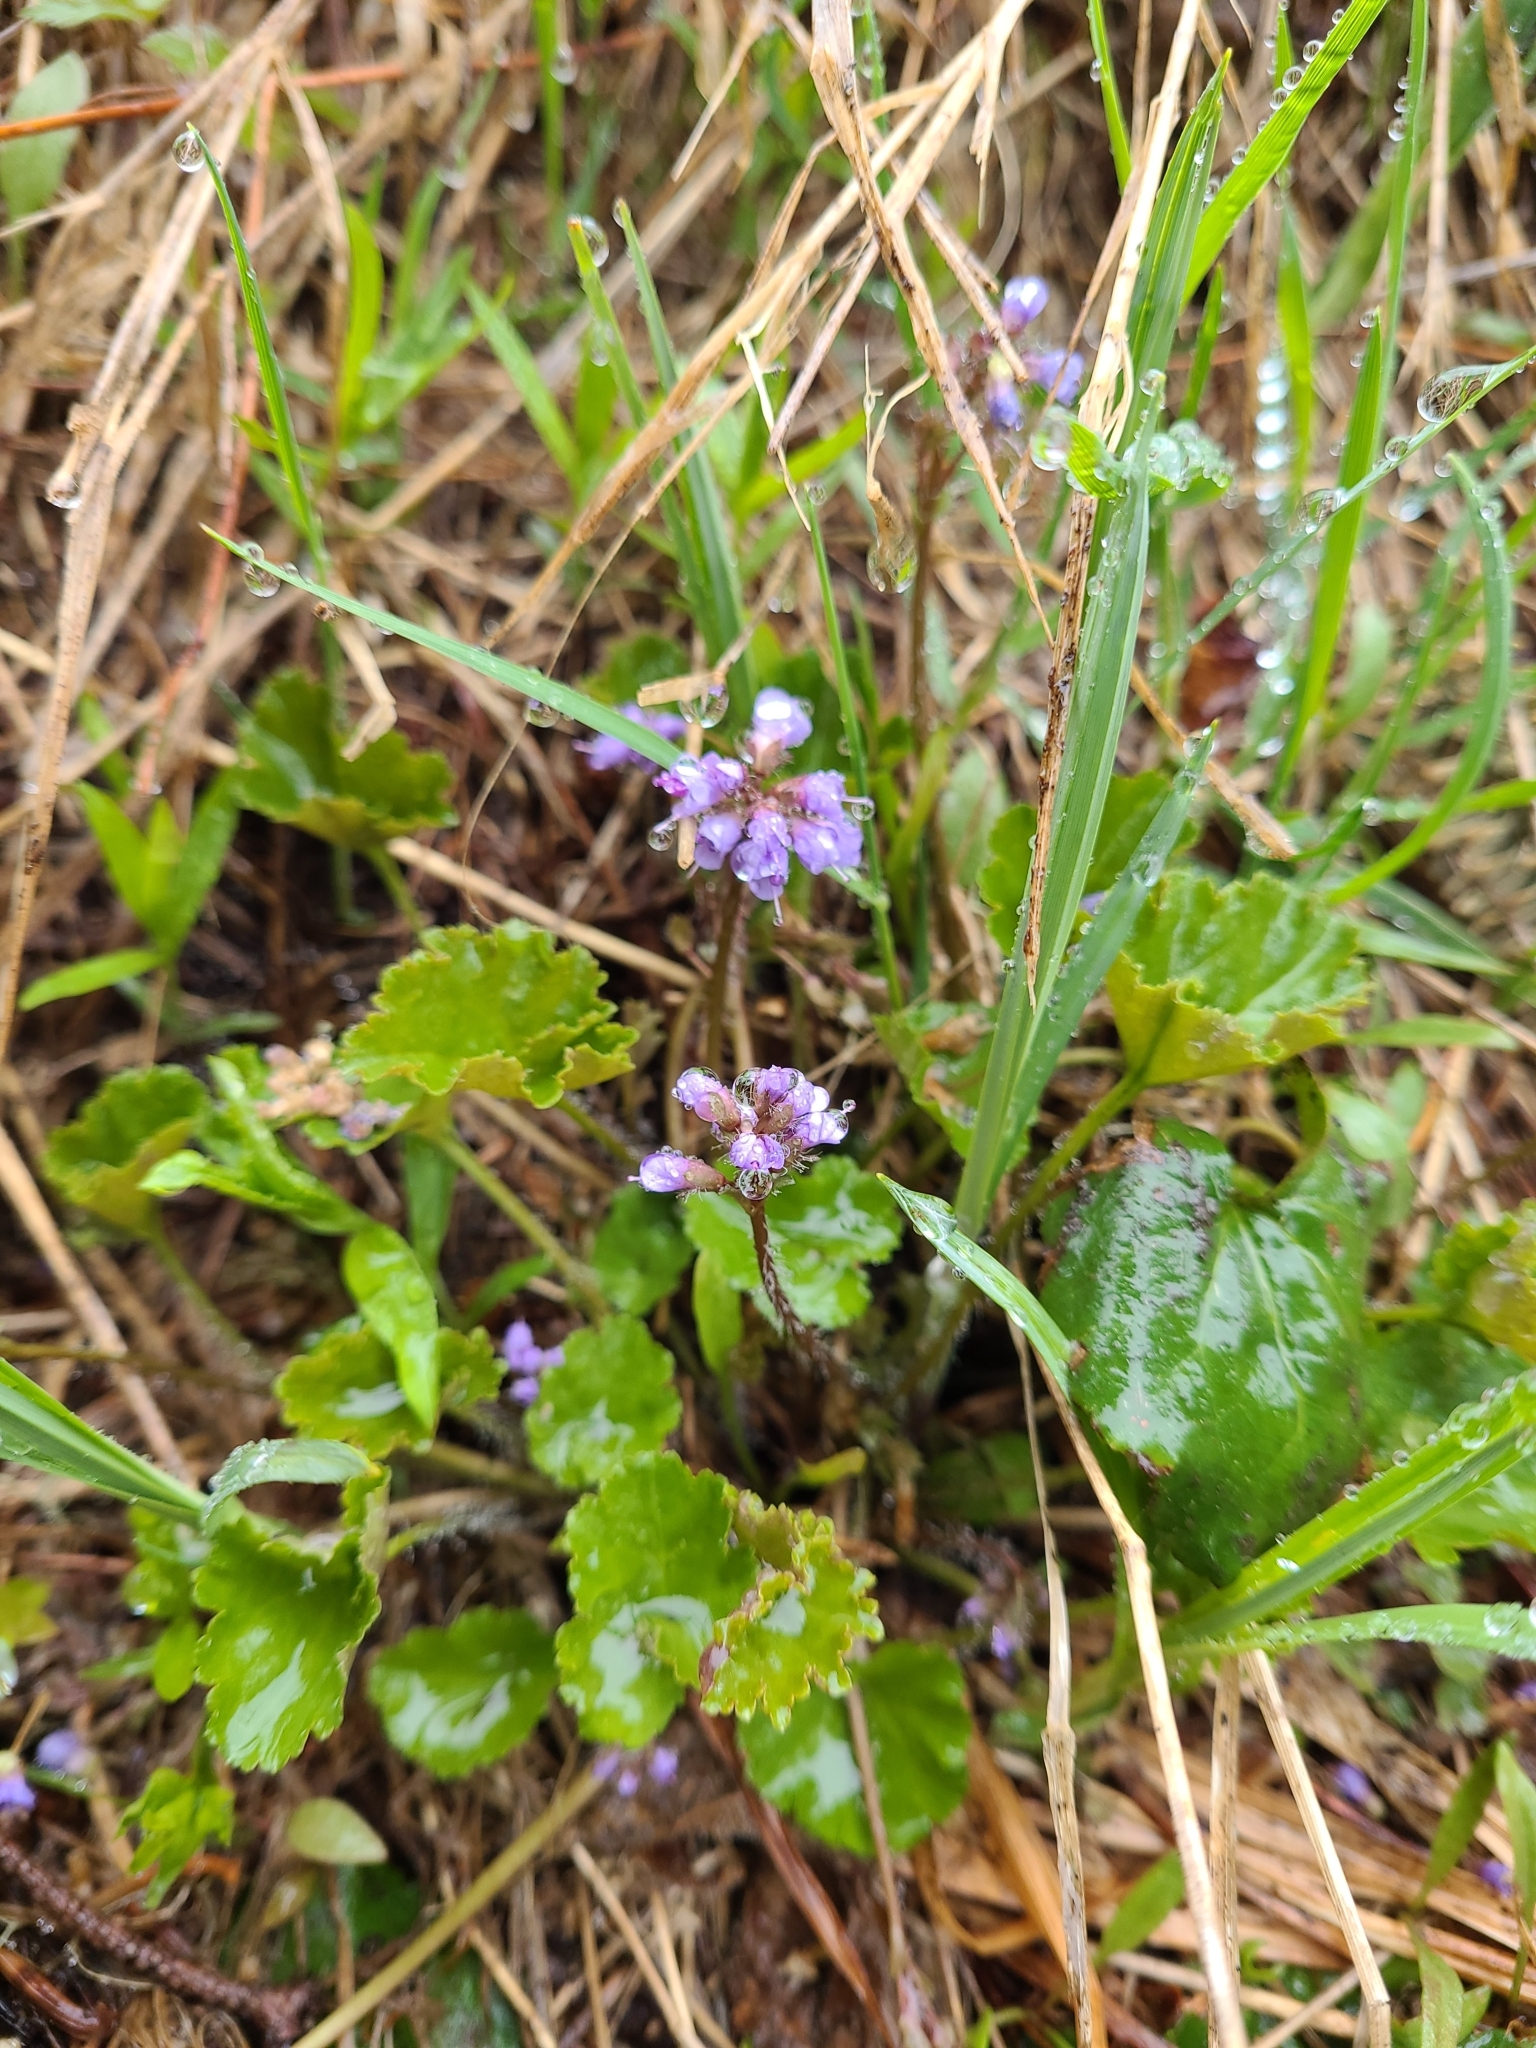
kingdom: Plantae
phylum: Tracheophyta
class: Magnoliopsida
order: Lamiales
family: Plantaginaceae
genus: Synthyris
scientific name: Synthyris reniformis
